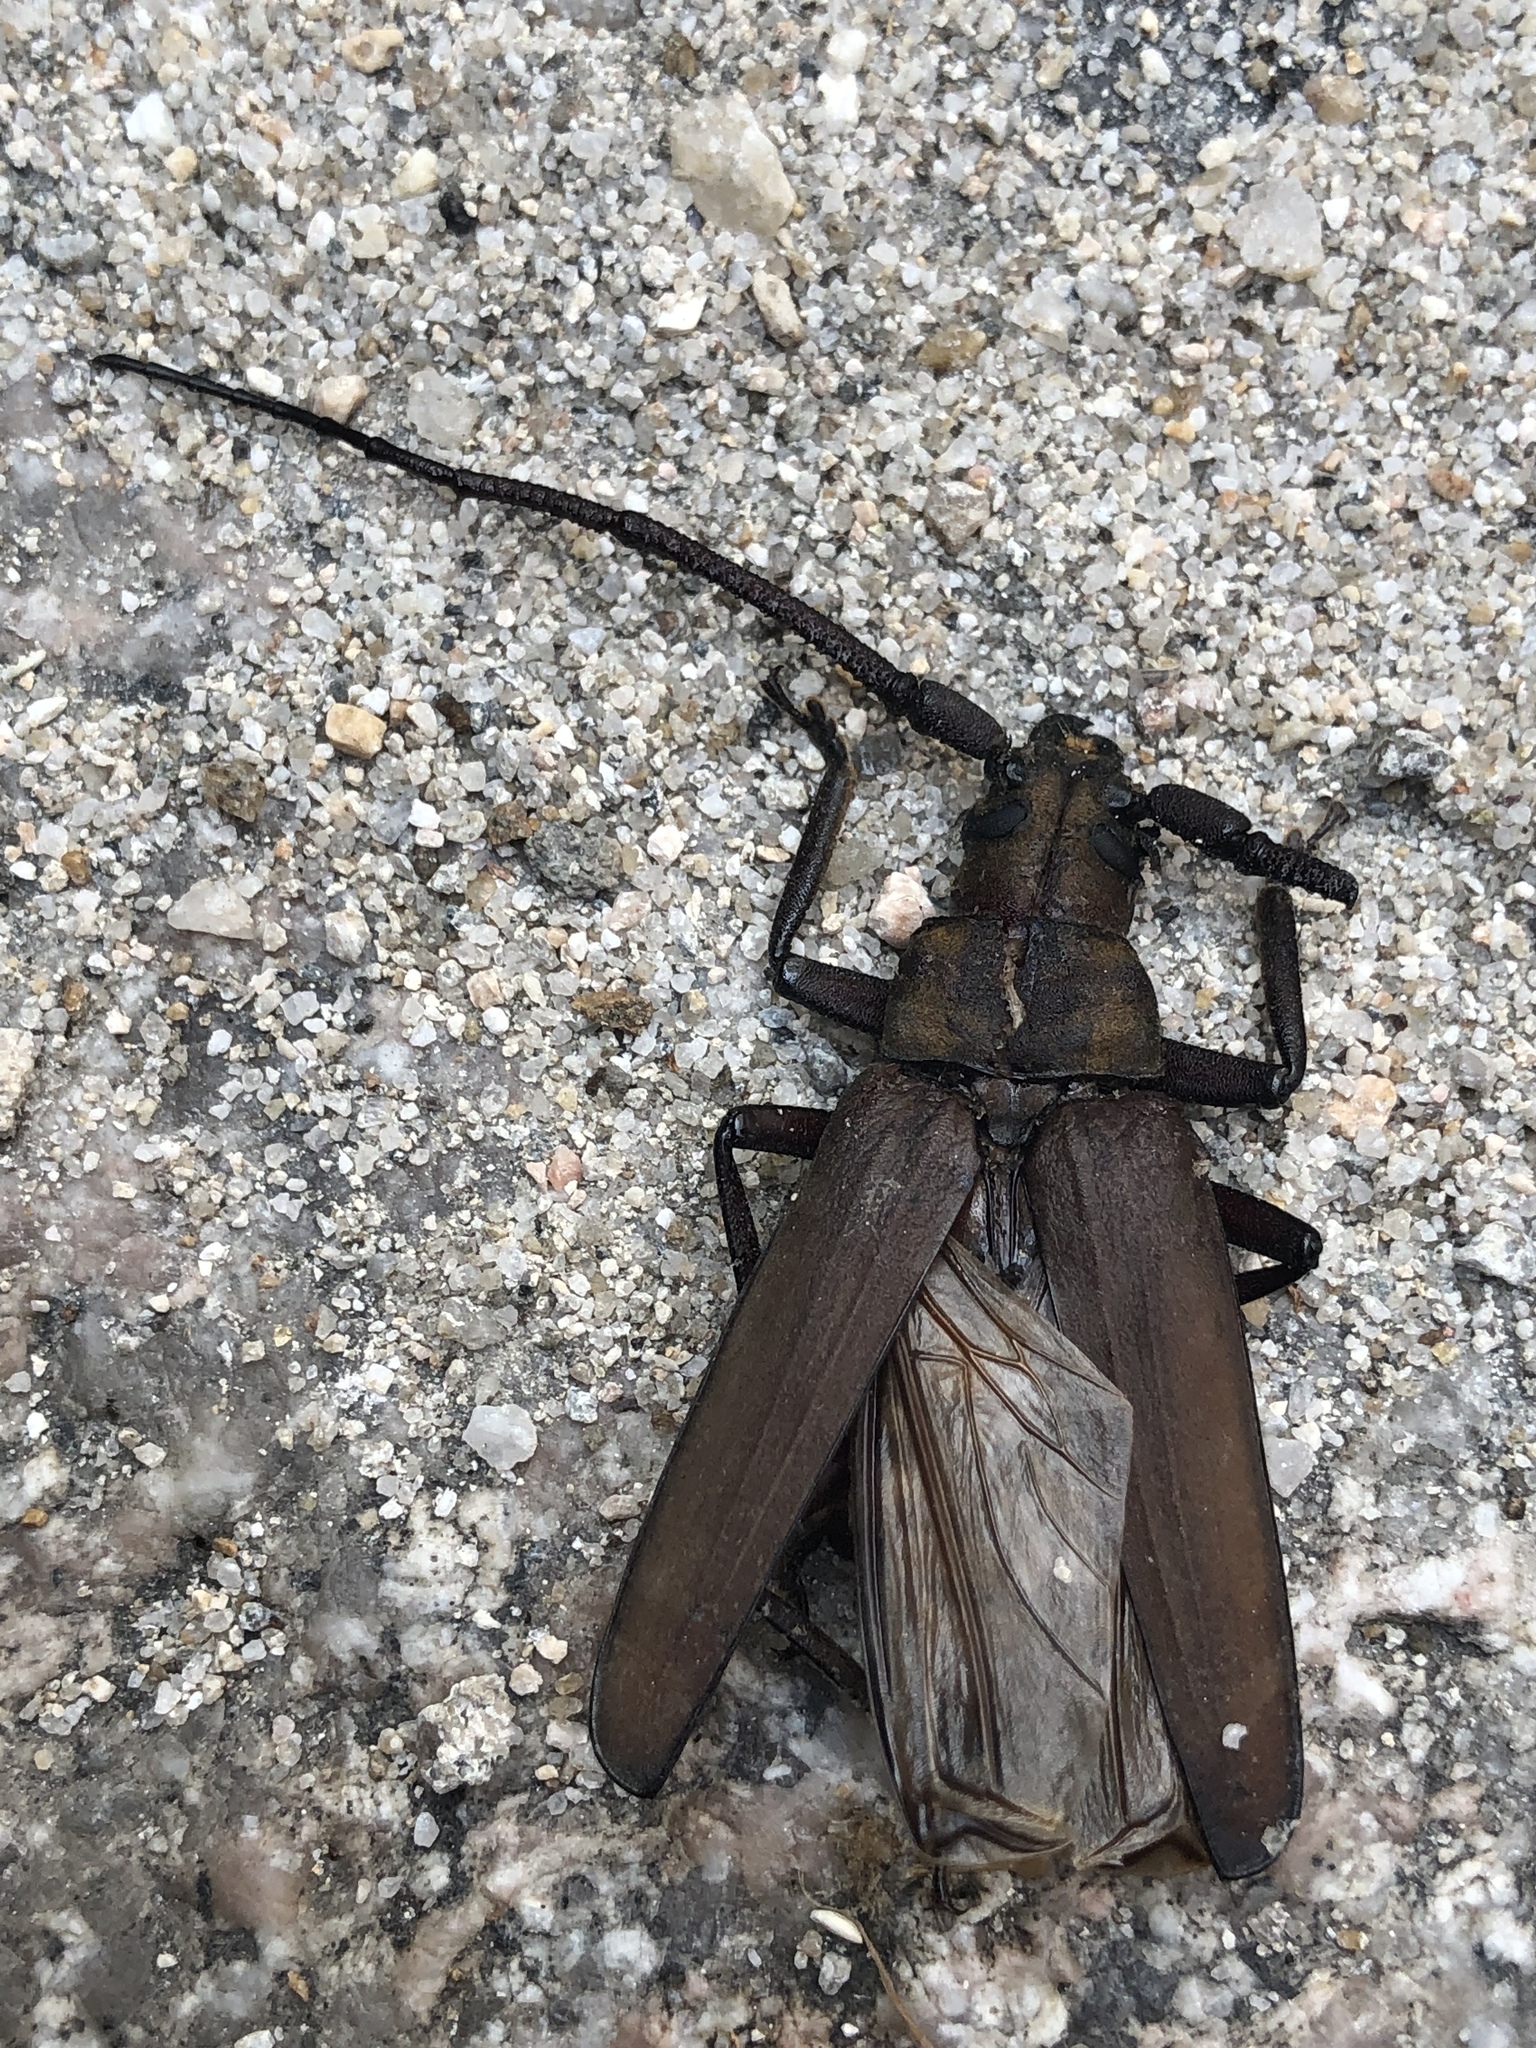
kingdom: Animalia
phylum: Arthropoda
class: Insecta
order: Coleoptera
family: Cerambycidae
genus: Aegosoma
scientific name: Aegosoma sinicum
